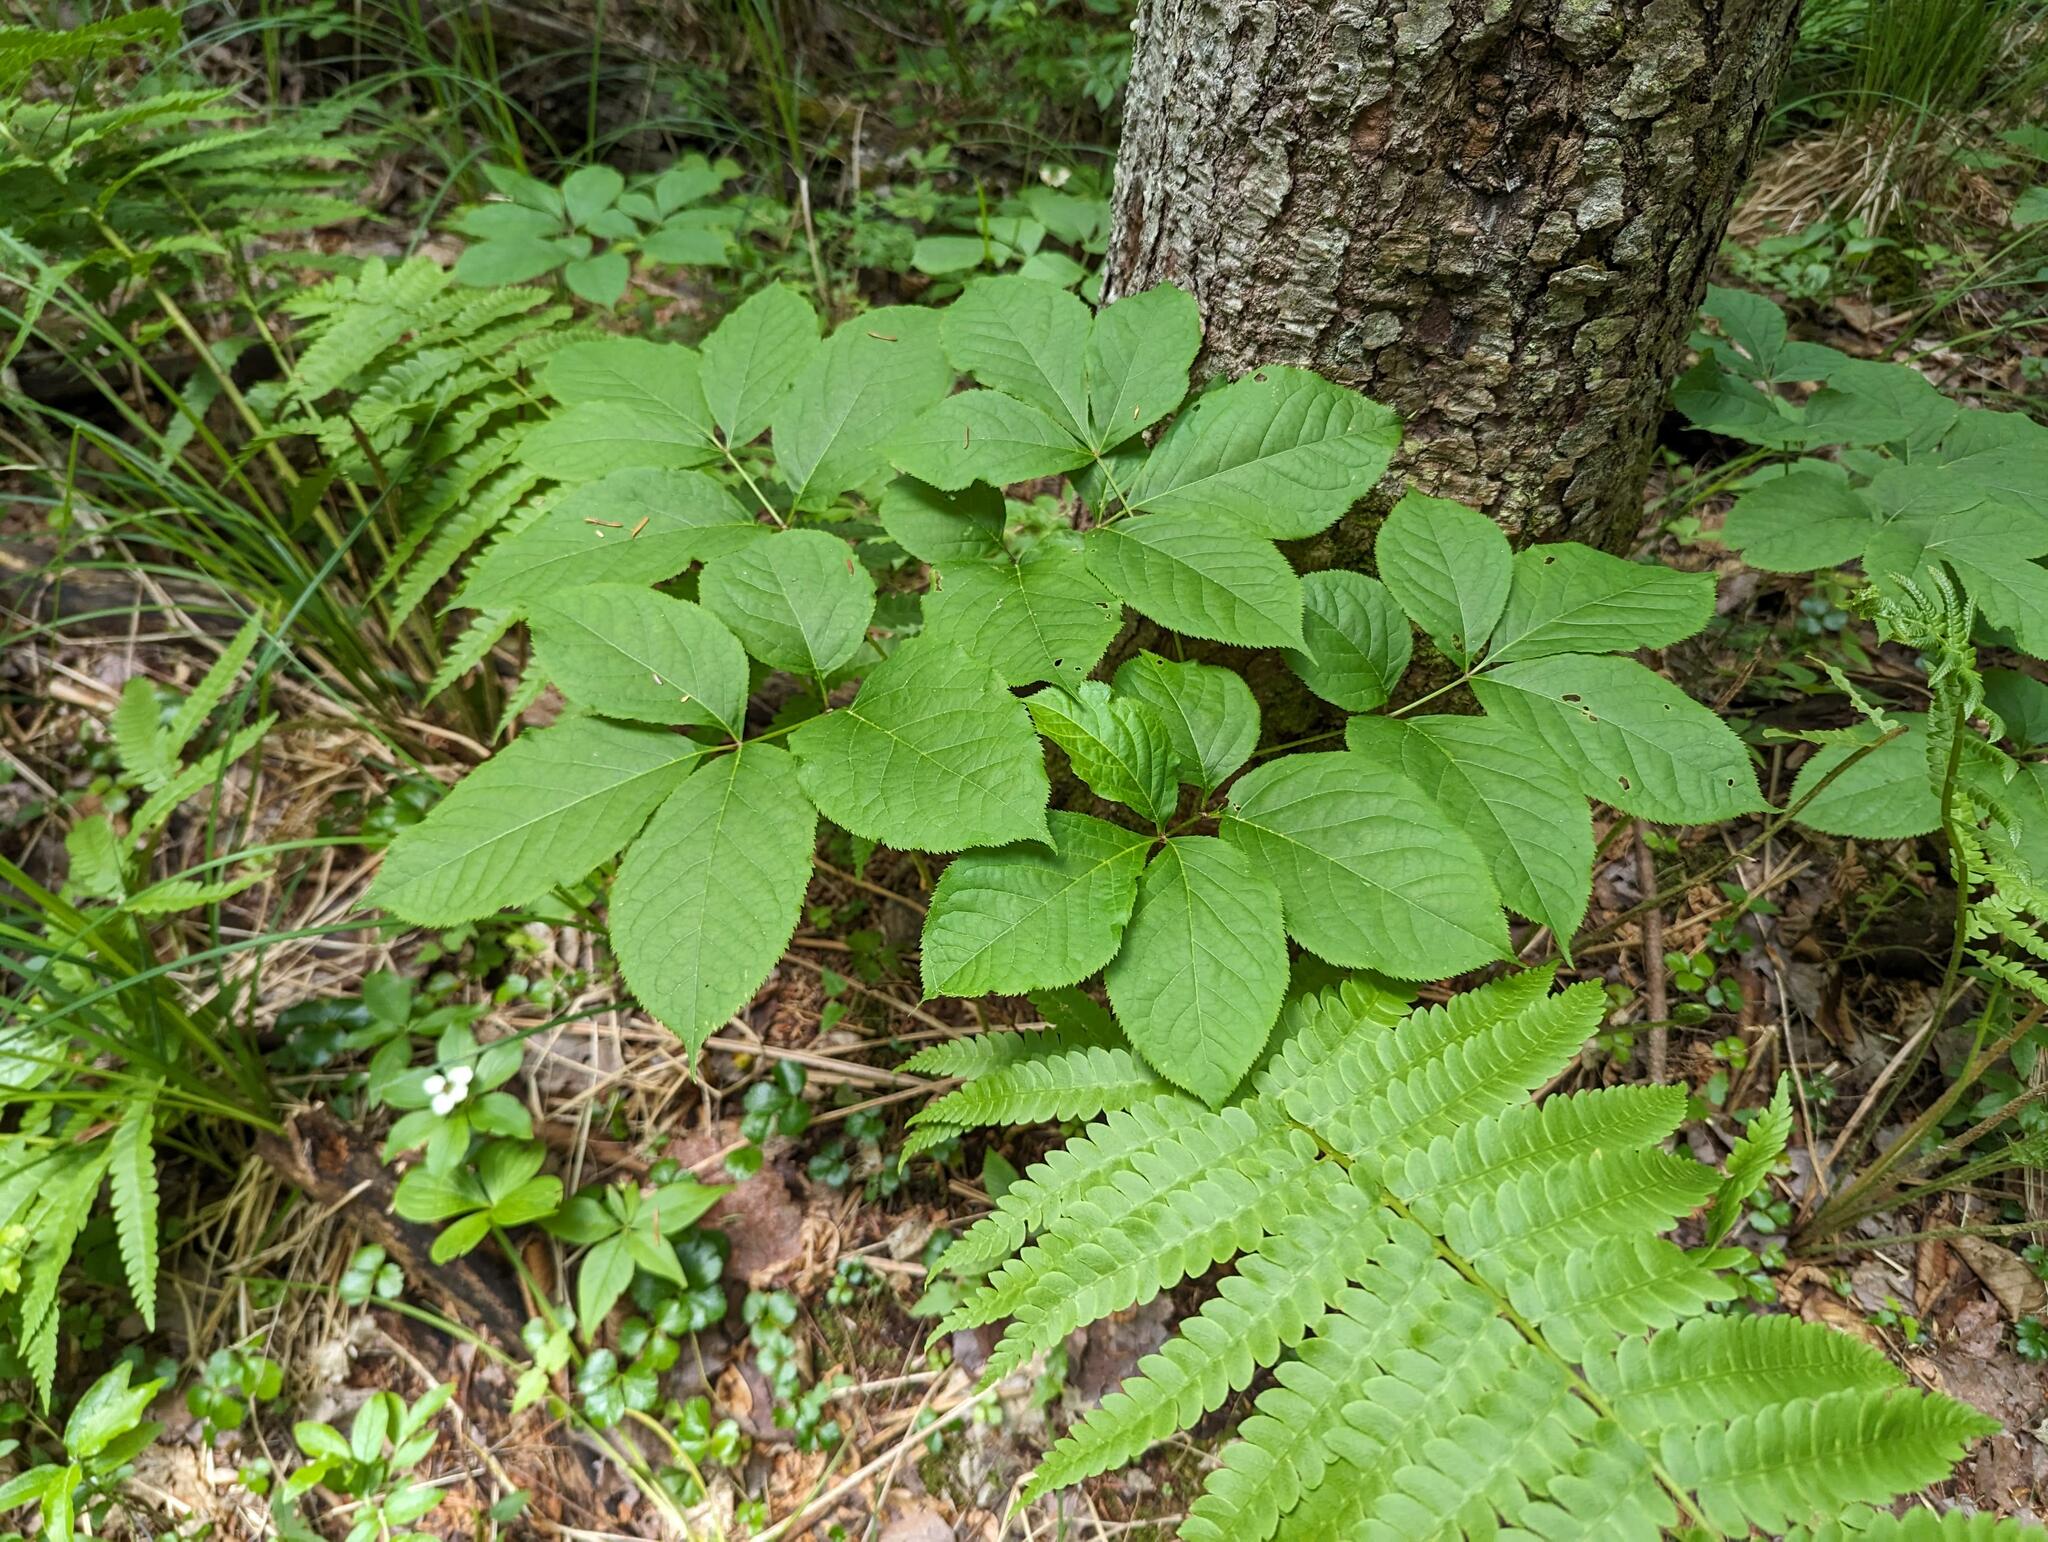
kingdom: Plantae
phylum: Tracheophyta
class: Magnoliopsida
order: Apiales
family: Araliaceae
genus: Aralia
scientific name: Aralia nudicaulis
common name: Wild sarsaparilla
